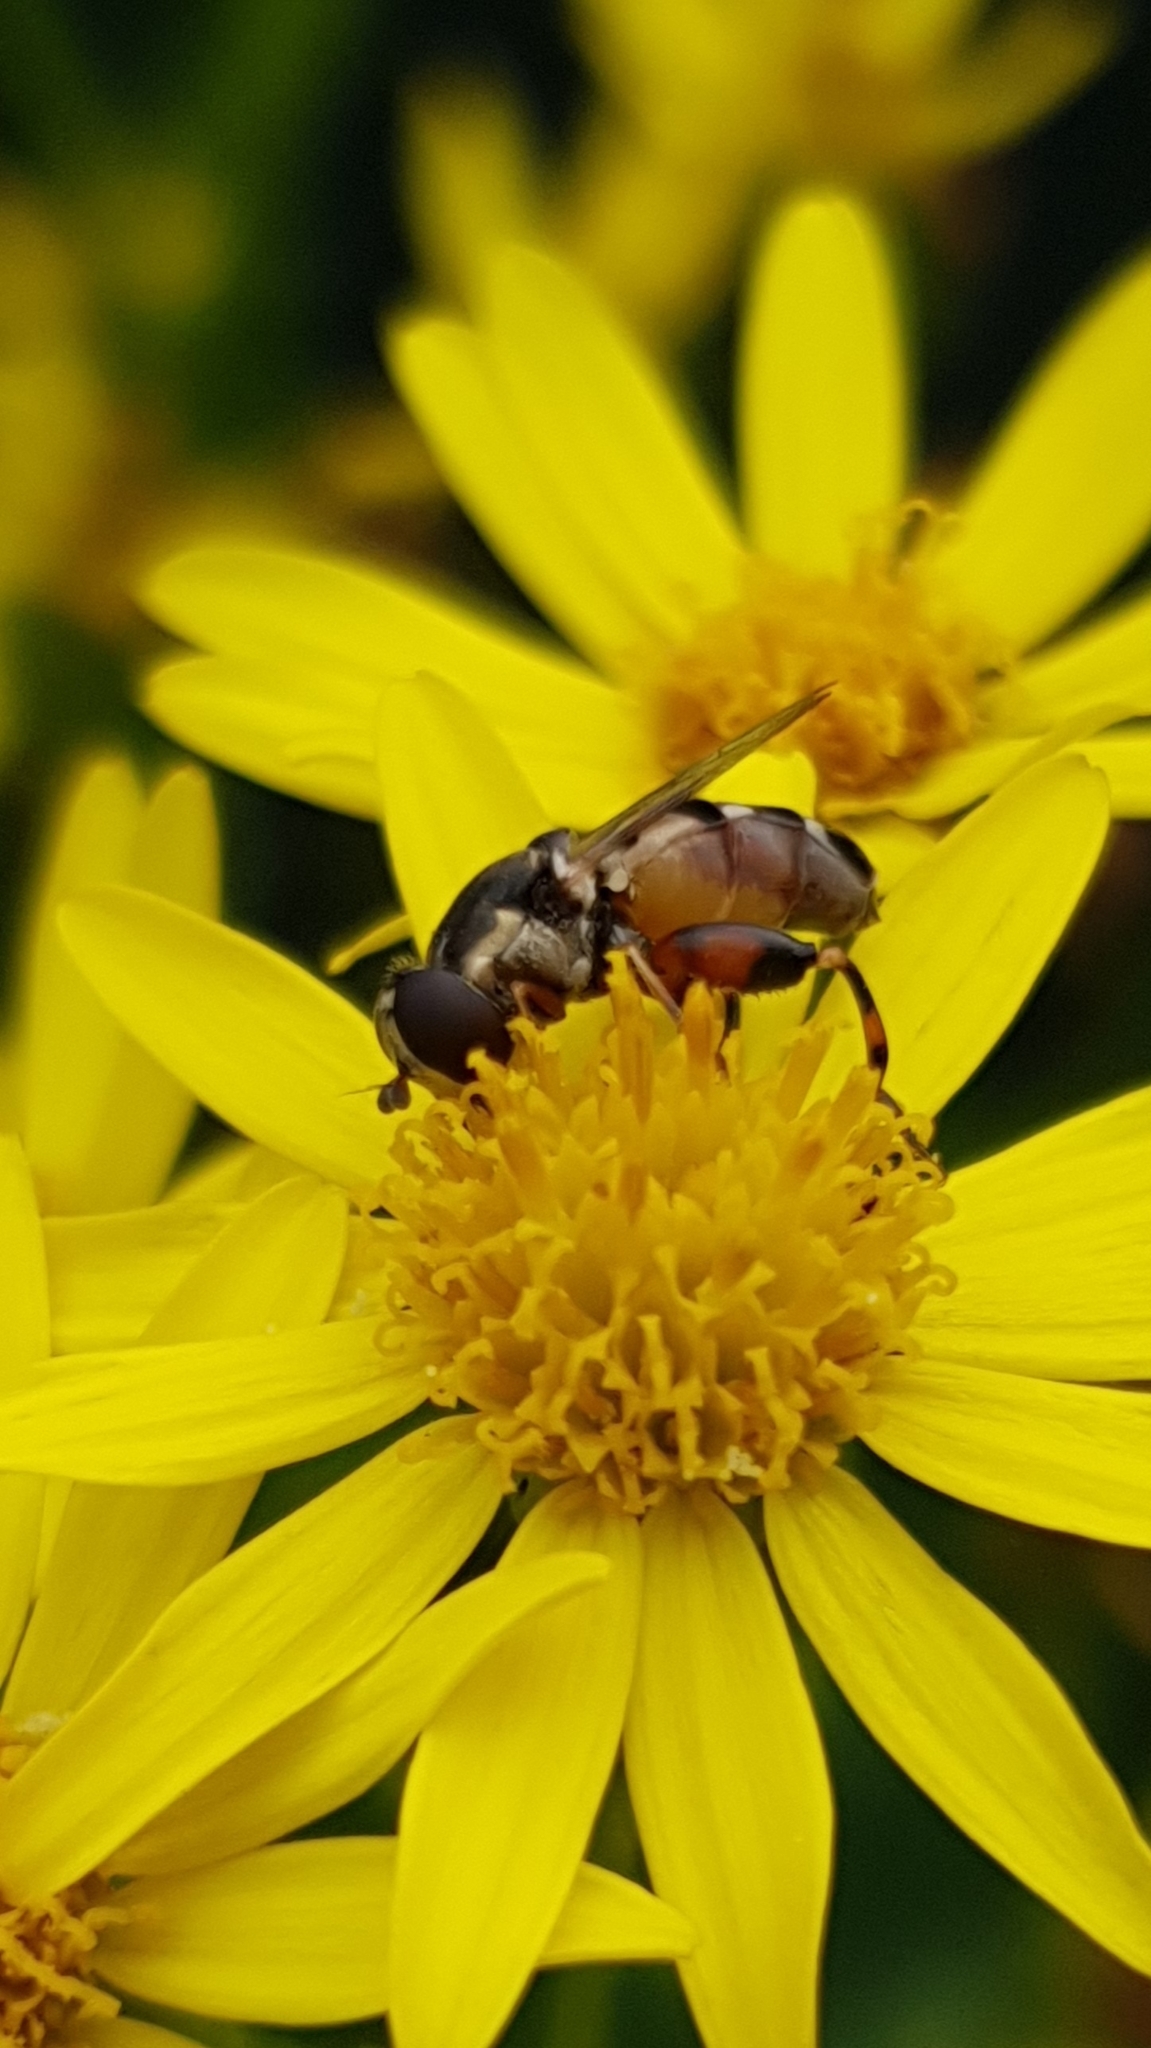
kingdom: Animalia
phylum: Arthropoda
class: Insecta
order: Diptera
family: Syrphidae
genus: Syritta
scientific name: Syritta pipiens
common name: Hover fly
